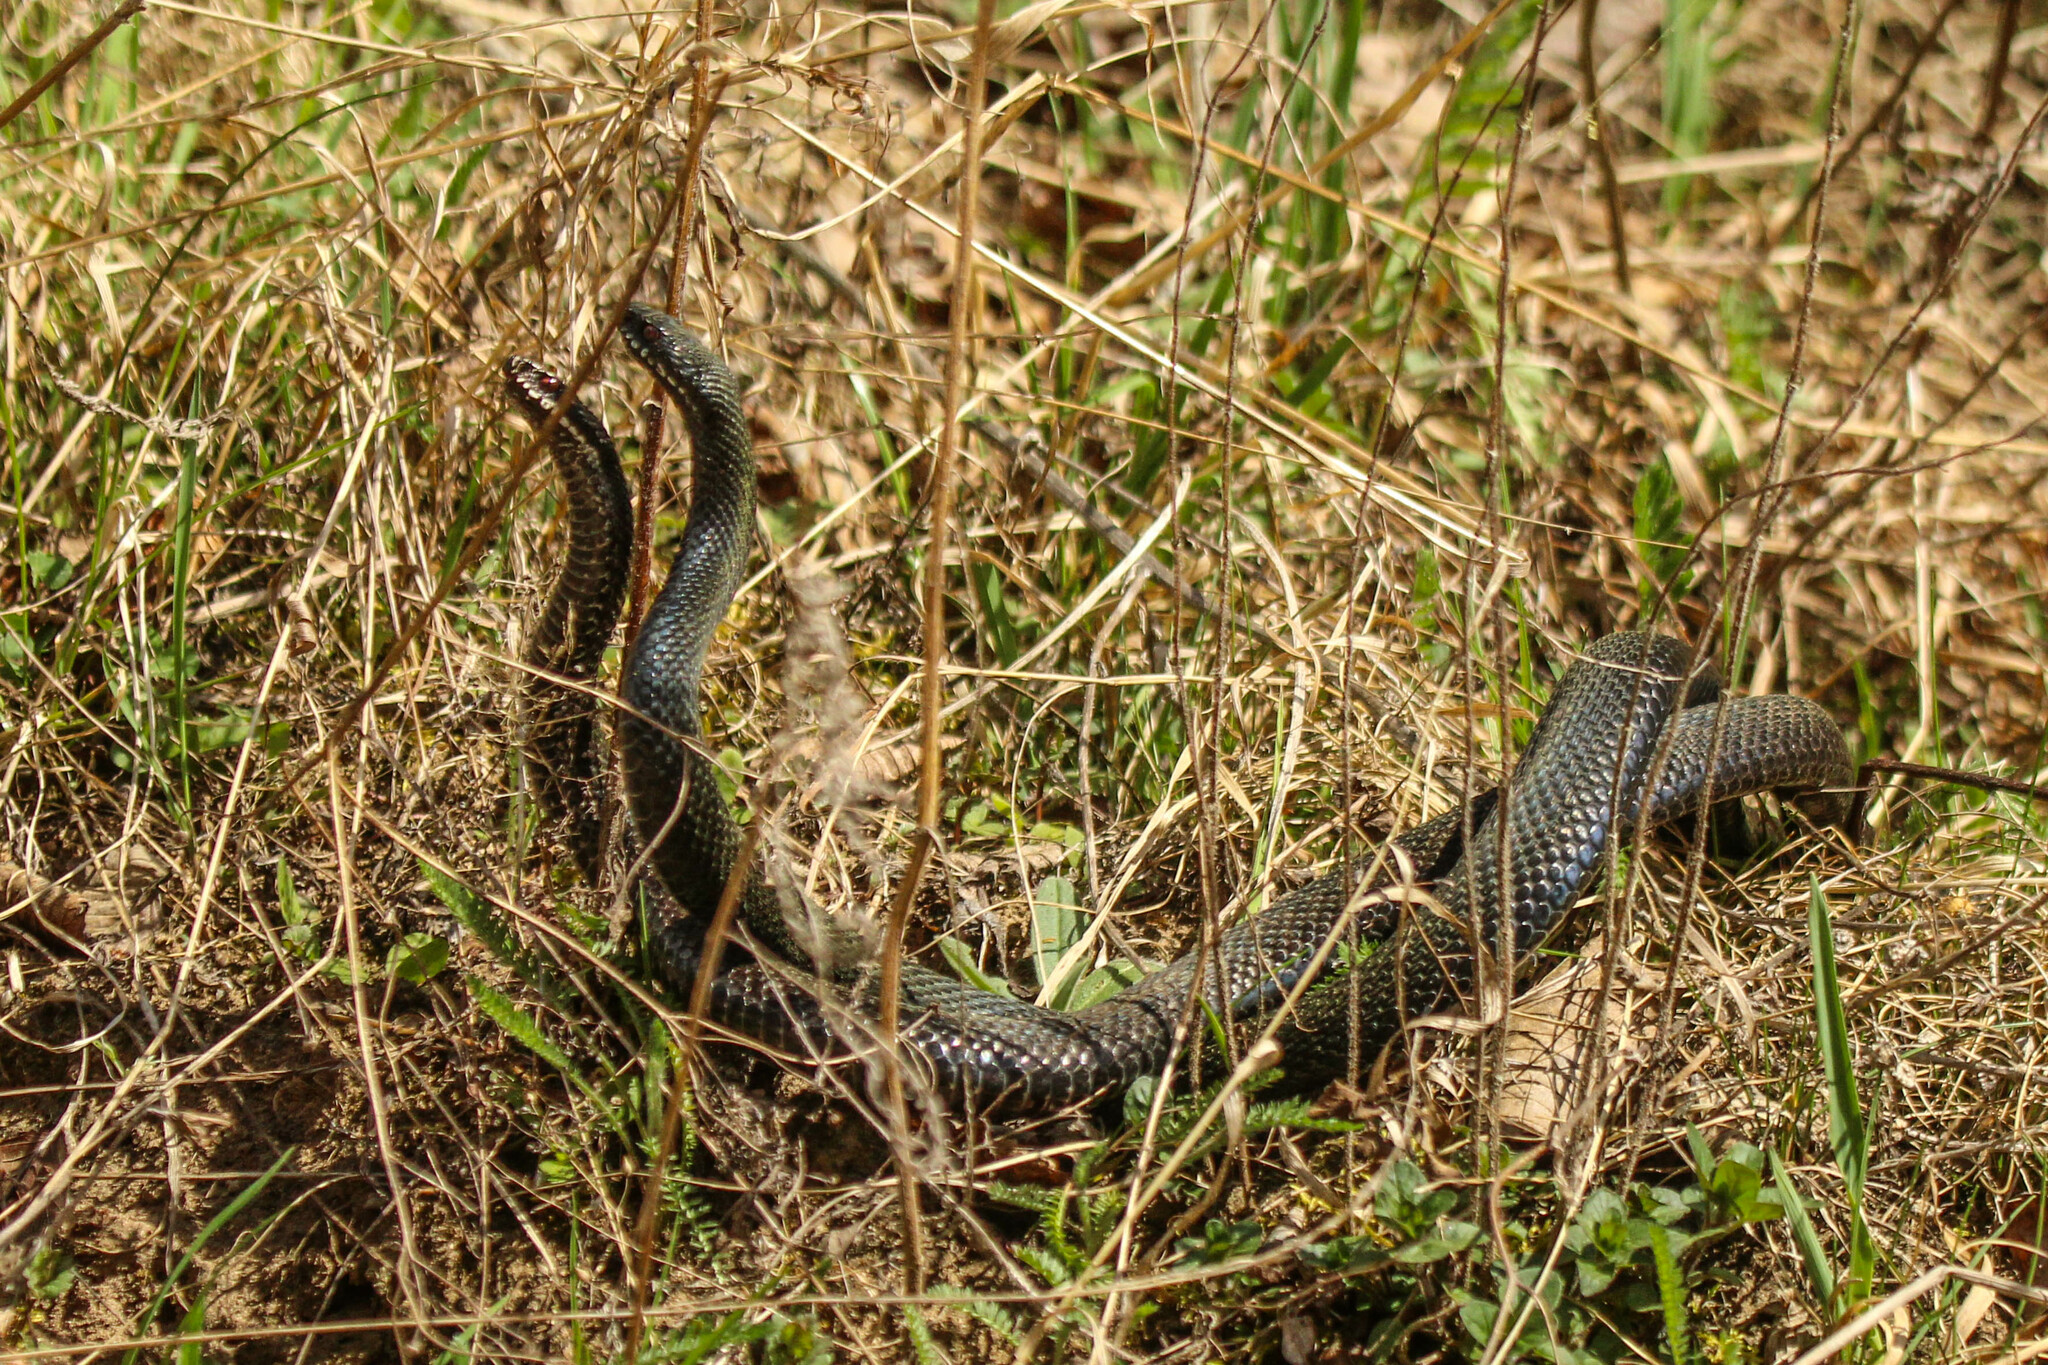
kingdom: Animalia
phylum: Chordata
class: Squamata
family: Viperidae
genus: Vipera
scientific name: Vipera berus
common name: Adder
